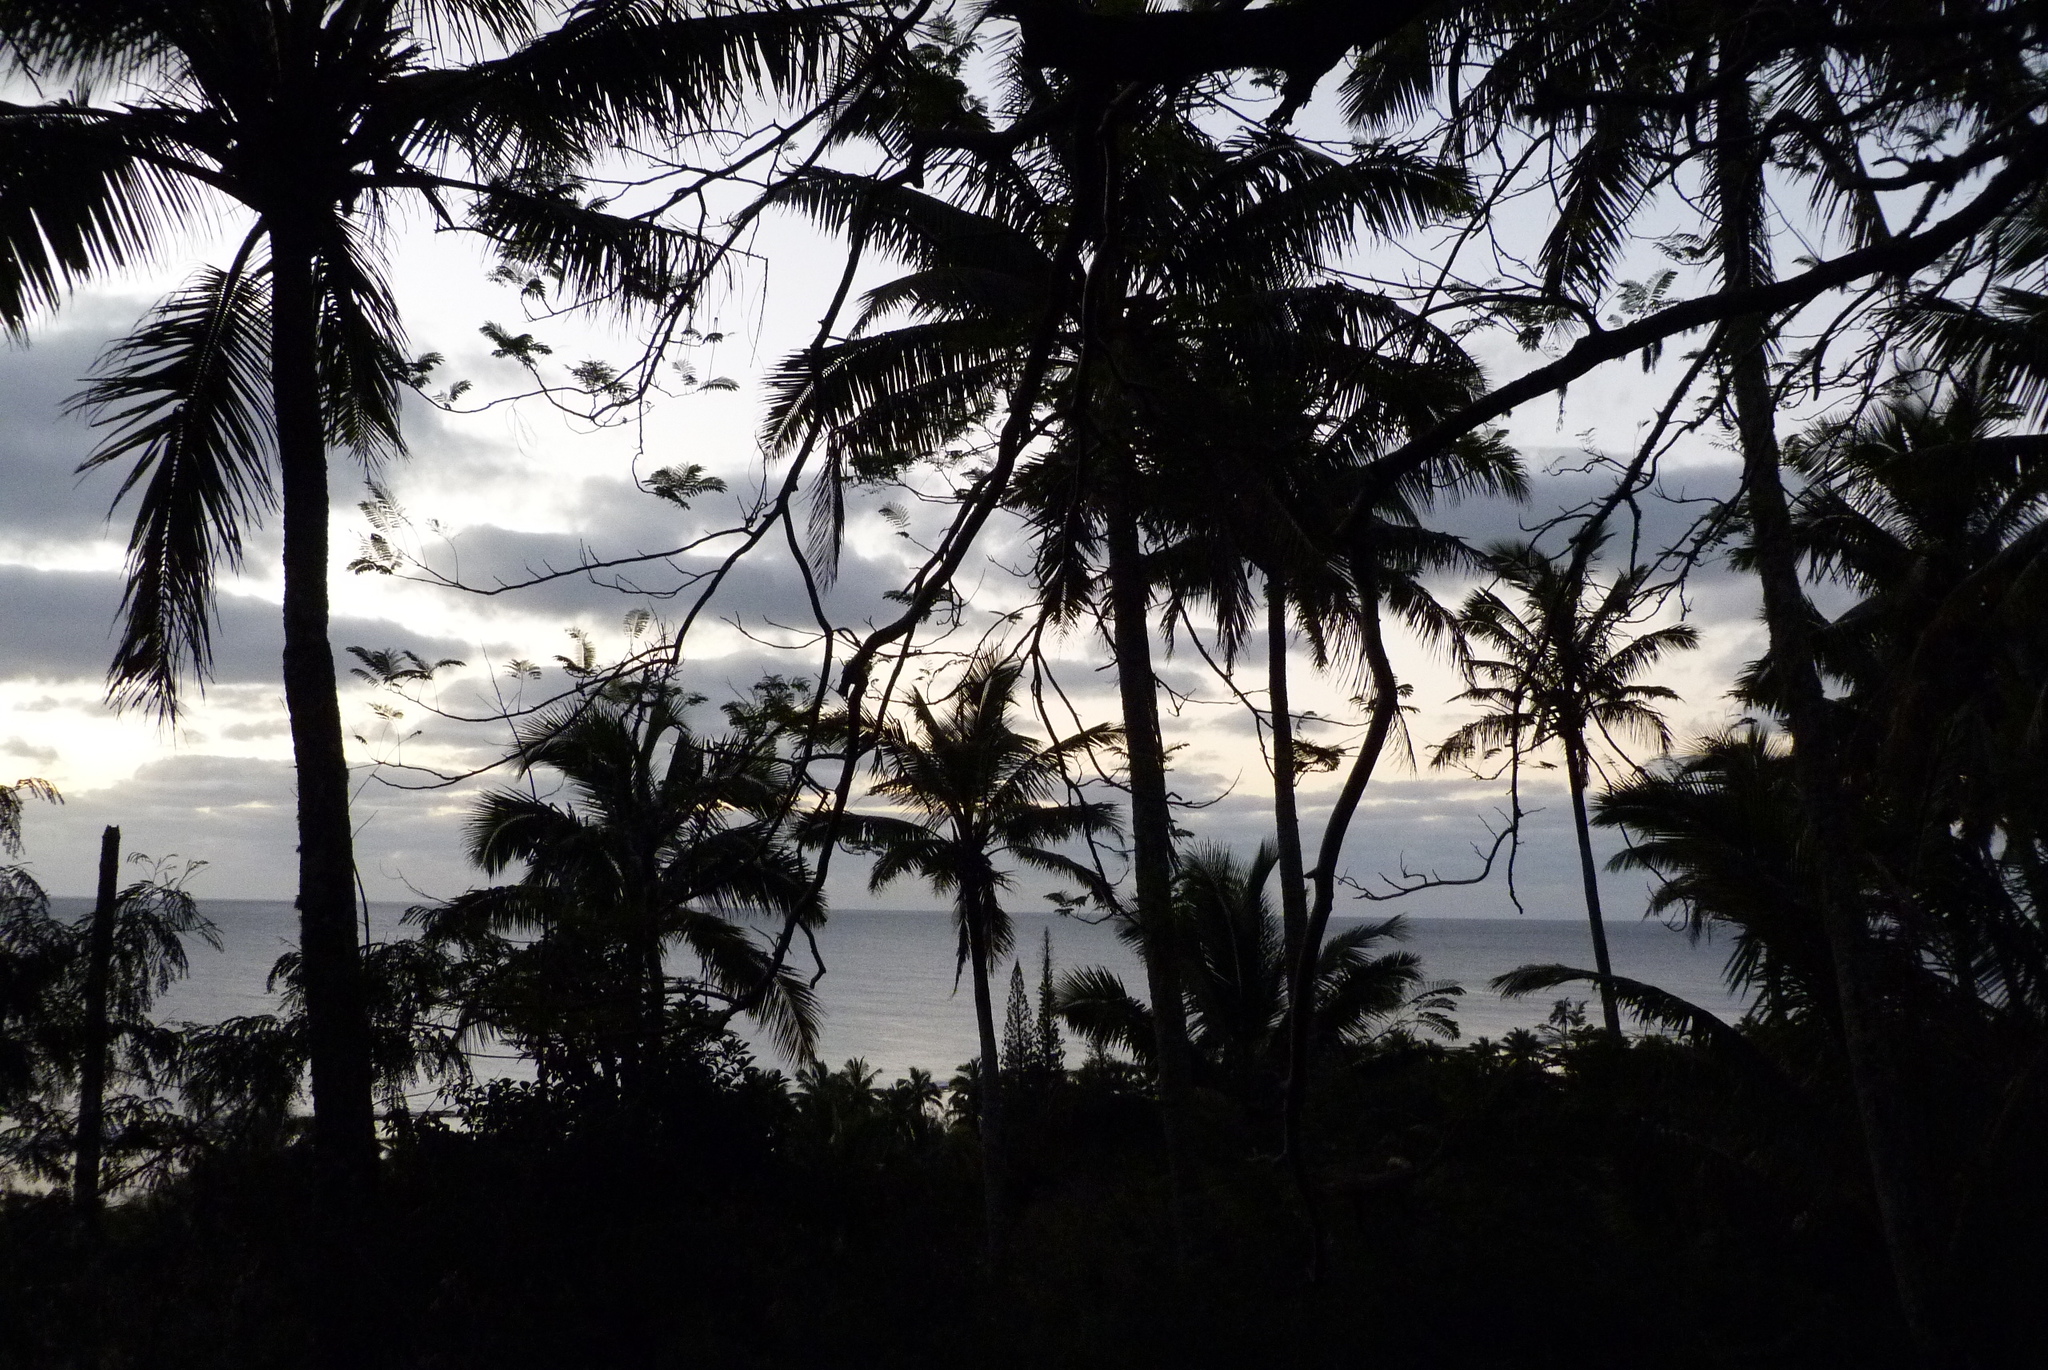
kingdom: Plantae
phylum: Tracheophyta
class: Liliopsida
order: Arecales
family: Arecaceae
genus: Cocos
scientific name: Cocos nucifera
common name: Coconut palm
